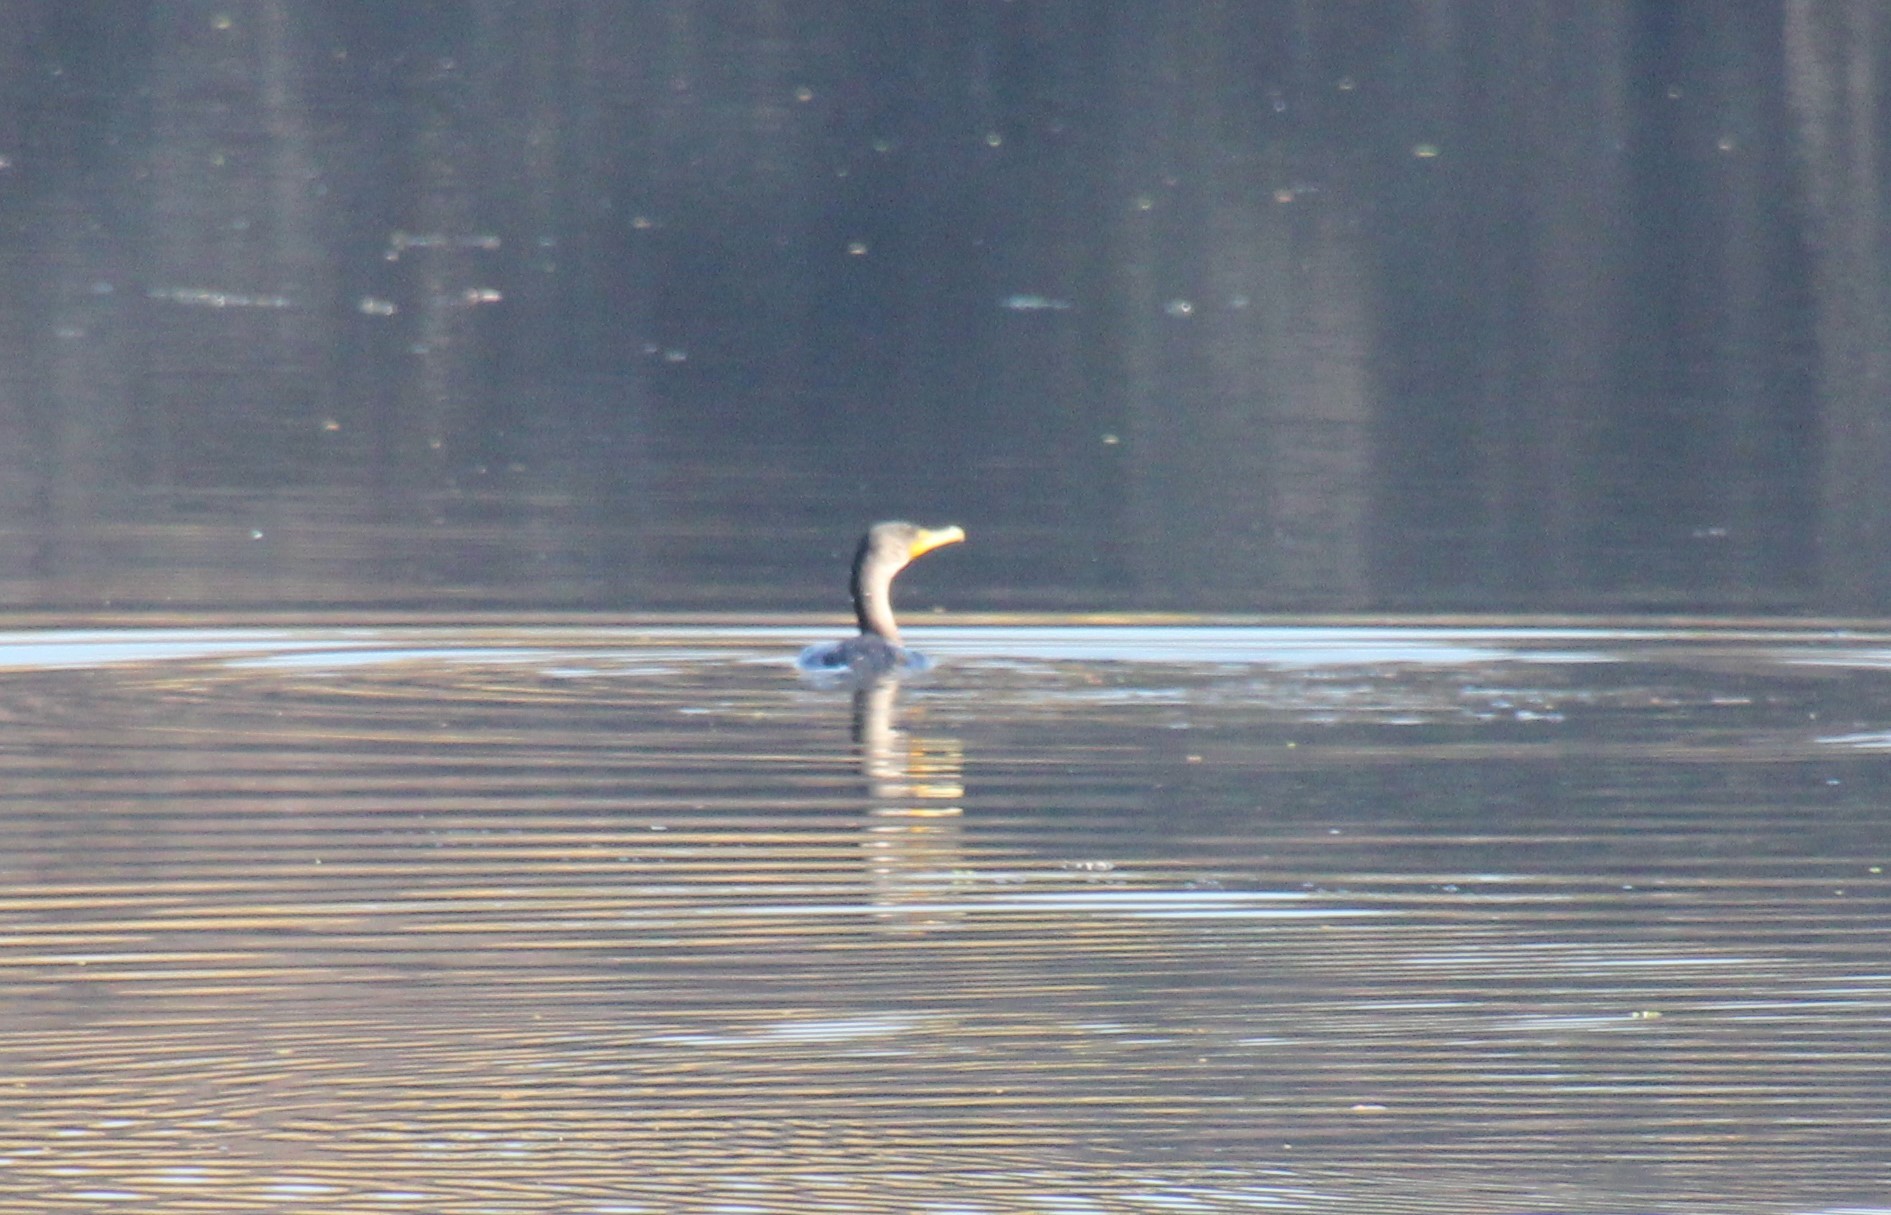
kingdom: Animalia
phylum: Chordata
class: Aves
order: Suliformes
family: Phalacrocoracidae
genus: Phalacrocorax
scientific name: Phalacrocorax auritus
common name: Double-crested cormorant
